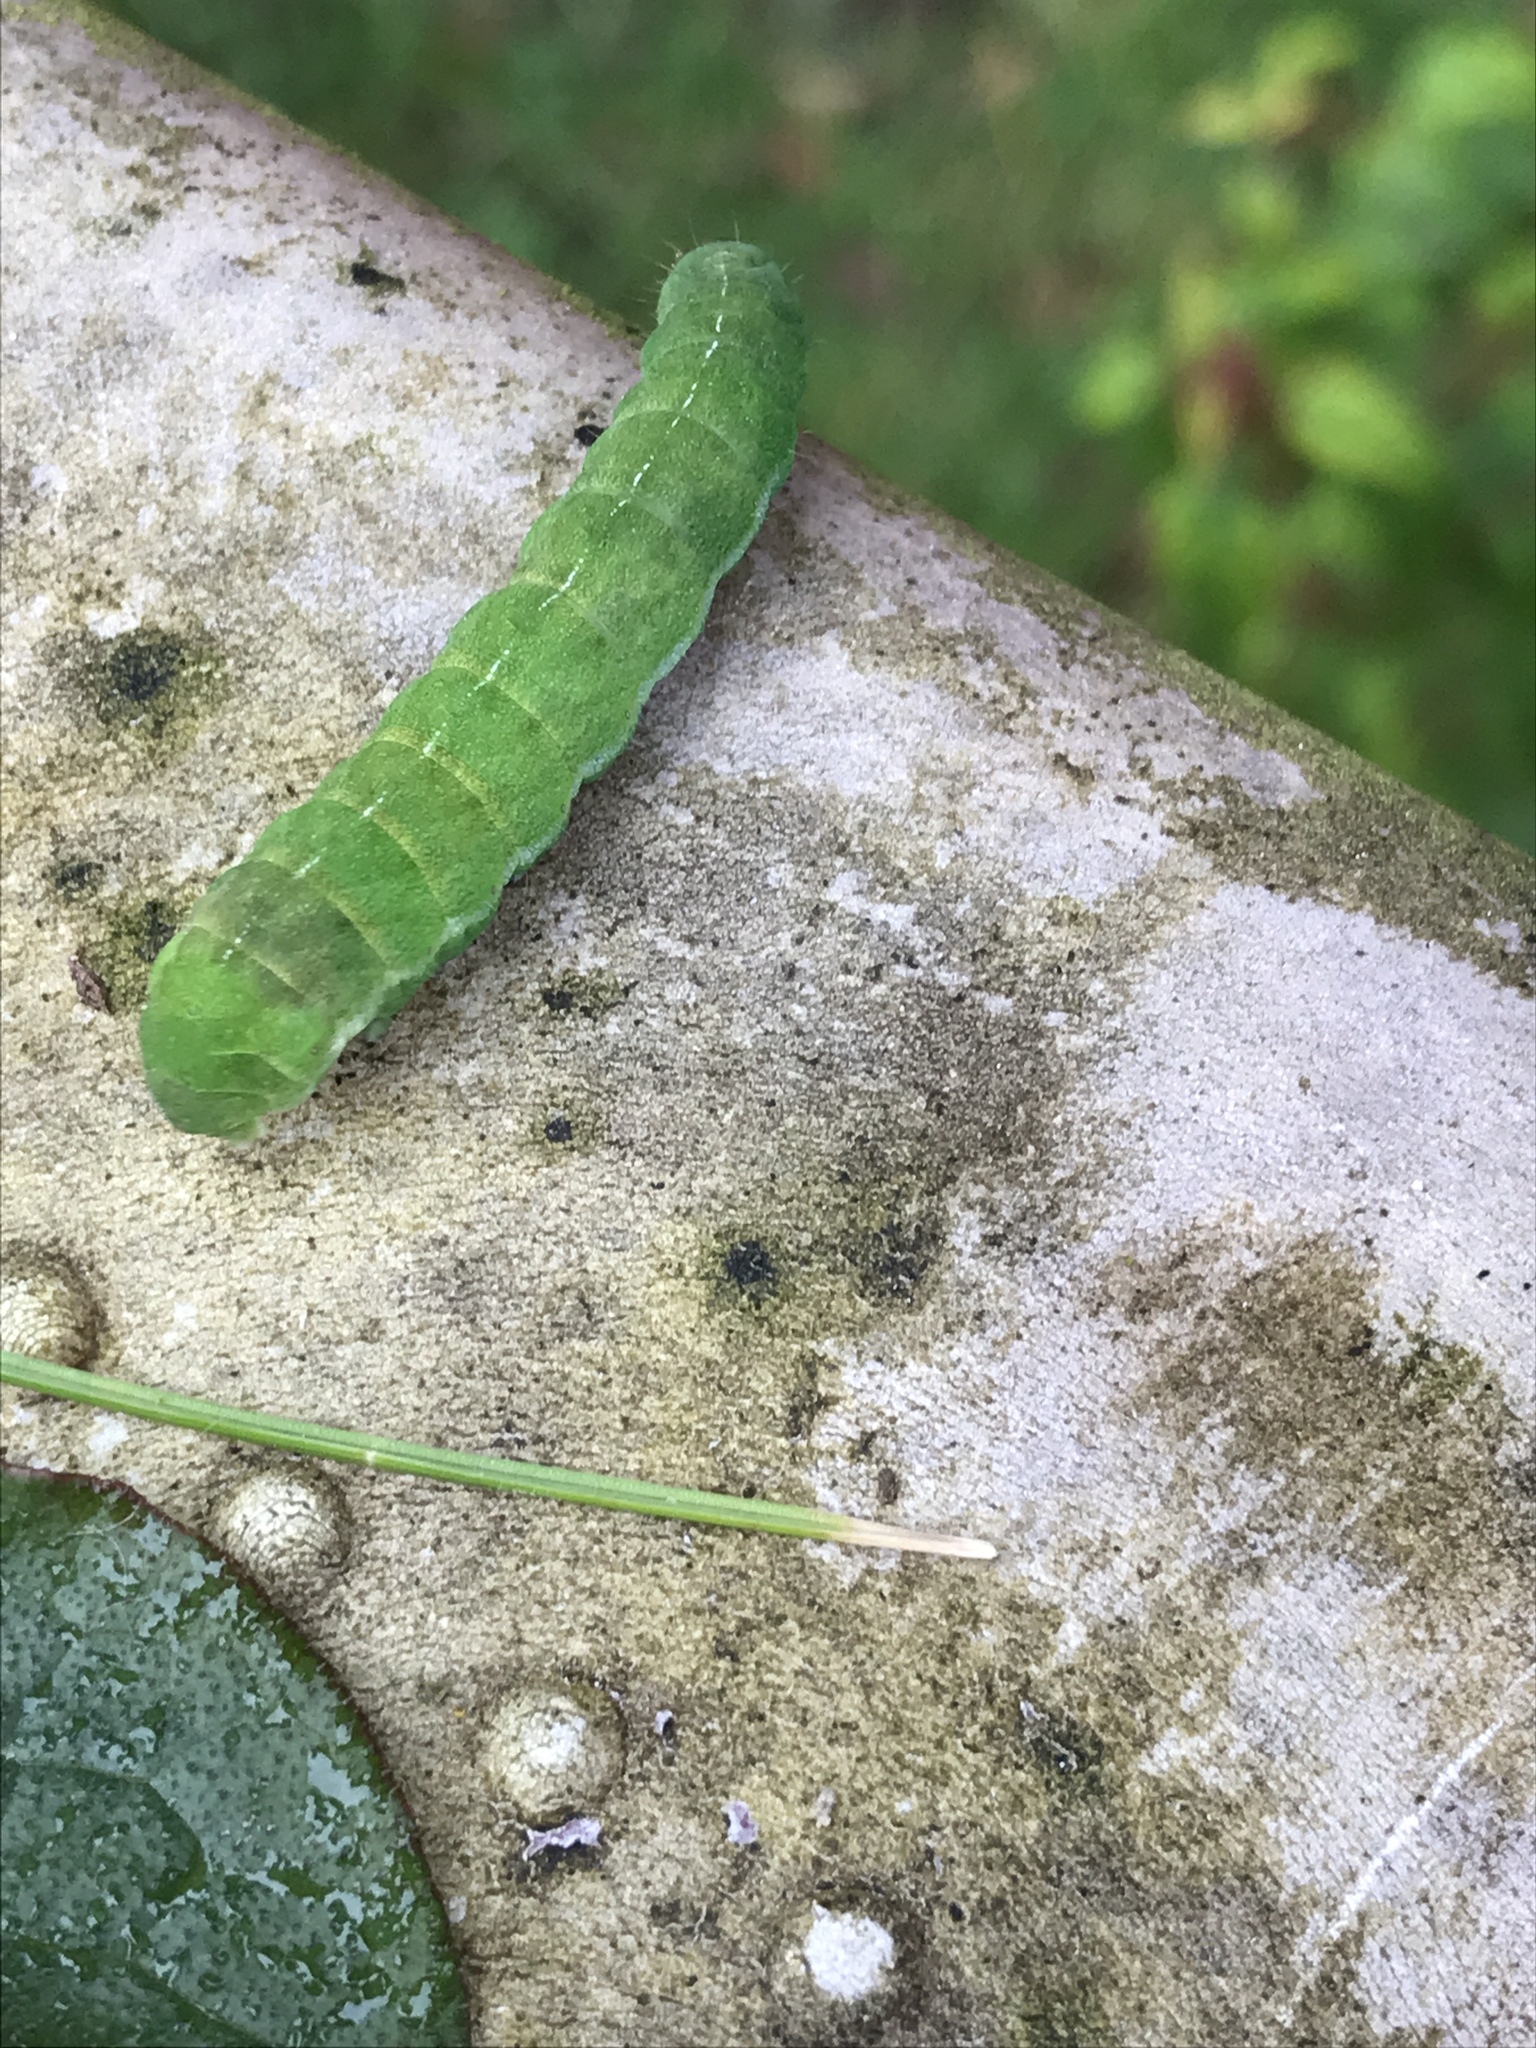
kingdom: Animalia
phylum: Arthropoda
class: Insecta
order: Lepidoptera
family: Noctuidae
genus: Phlogophora
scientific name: Phlogophora meticulosa
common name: Angle shades
